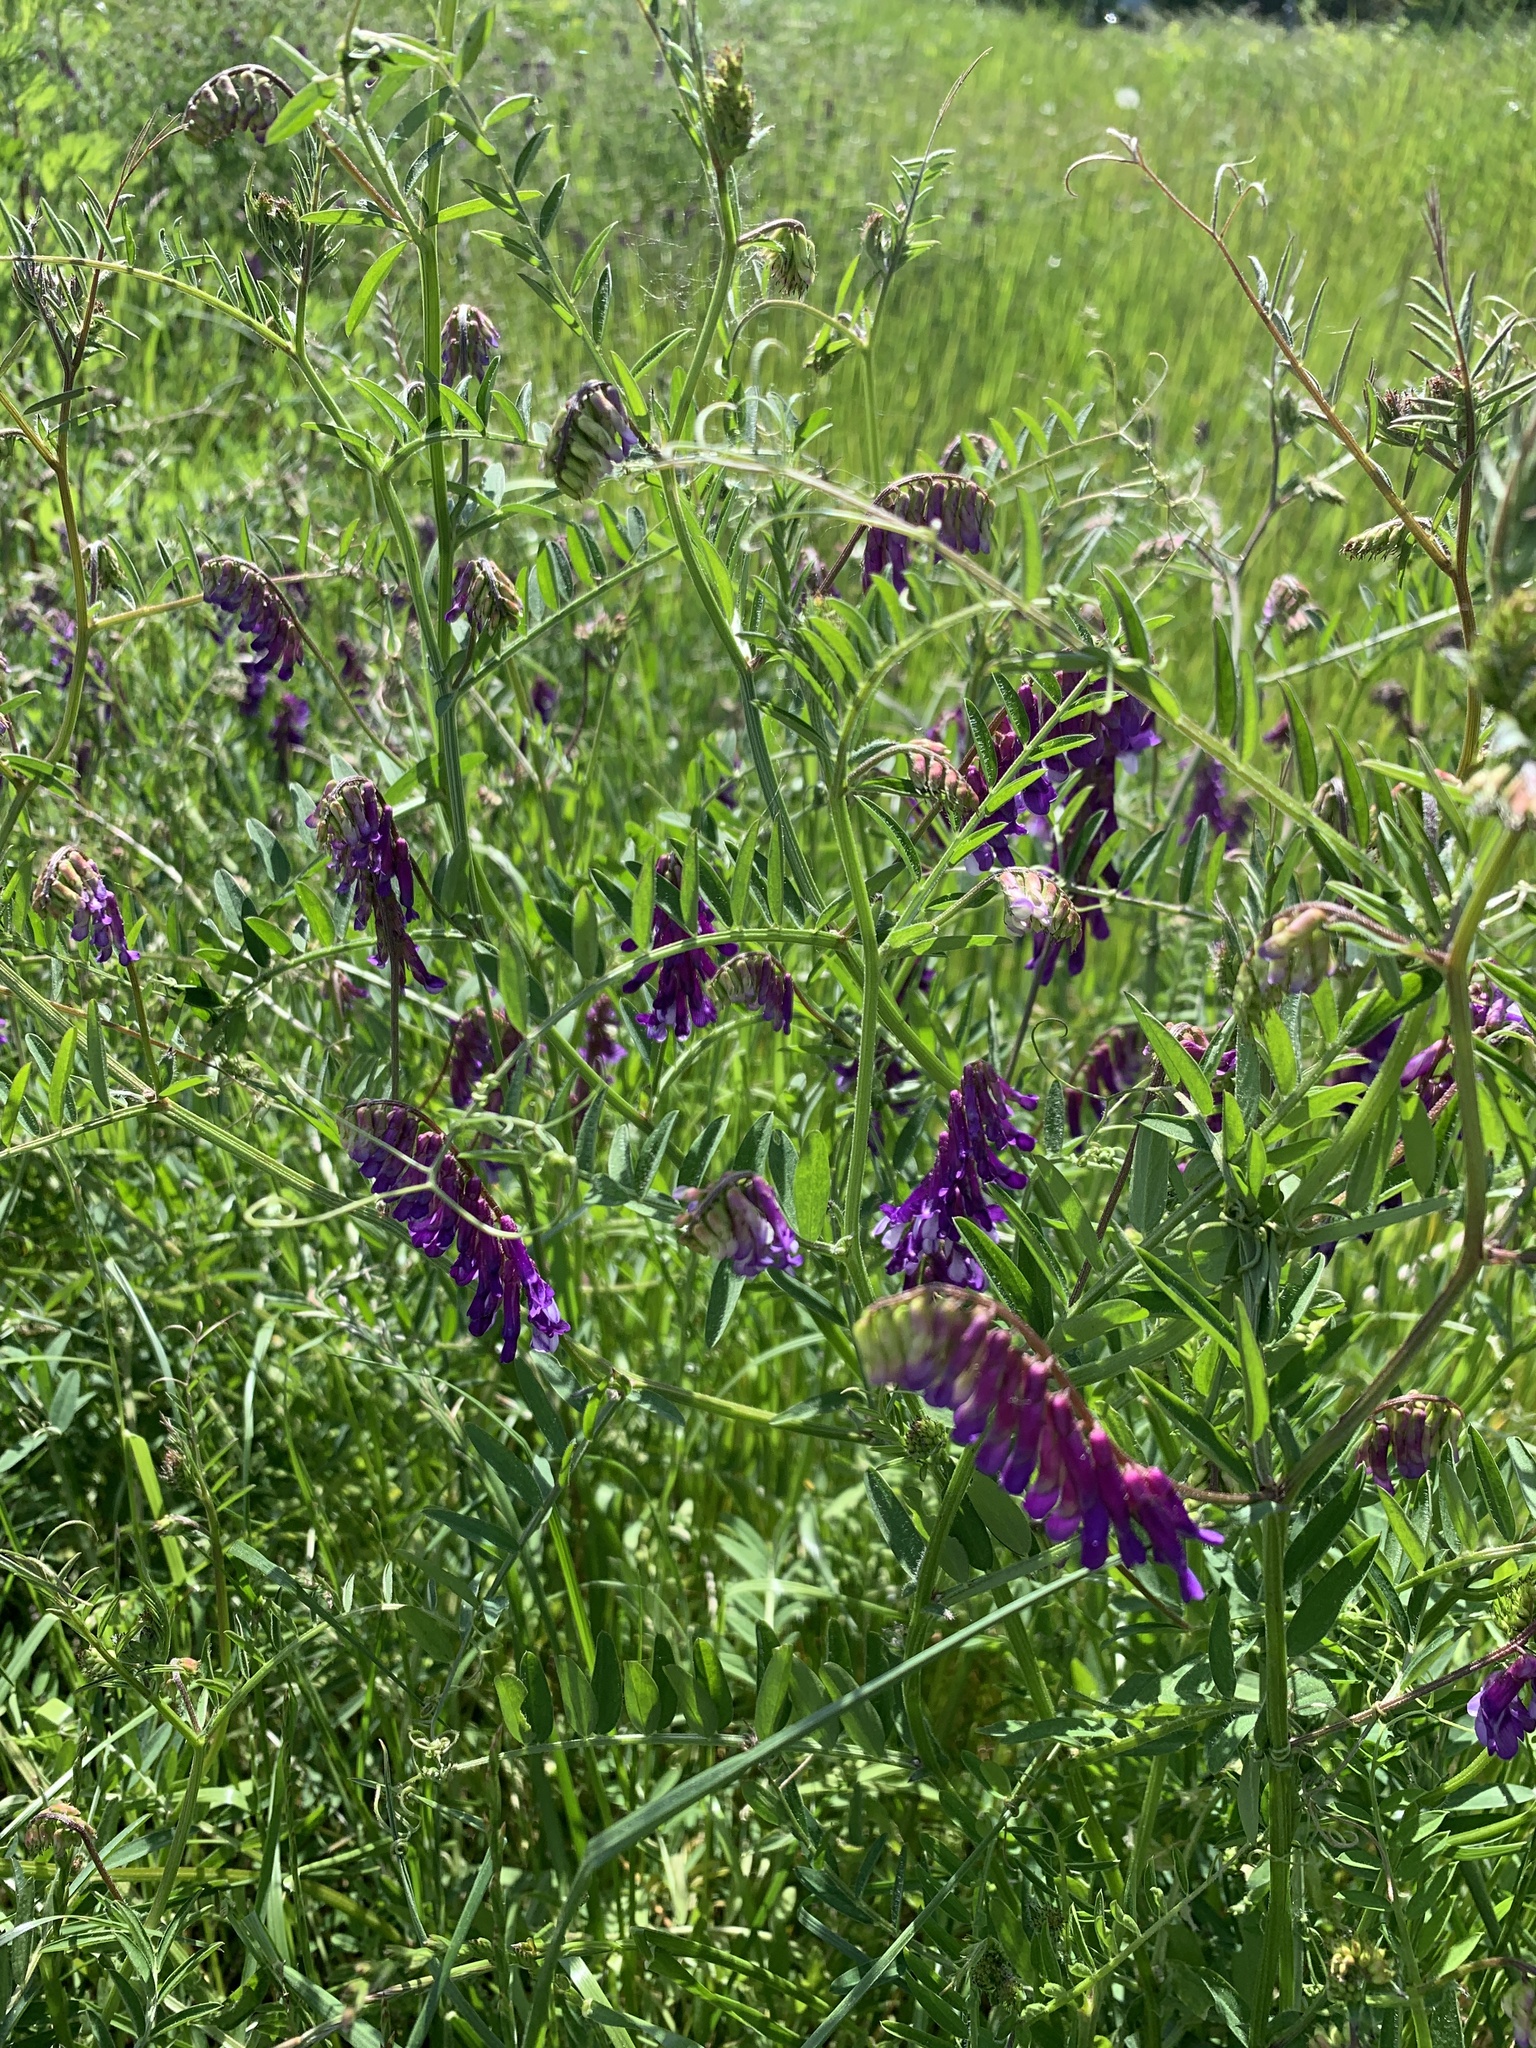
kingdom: Plantae
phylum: Tracheophyta
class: Magnoliopsida
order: Fabales
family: Fabaceae
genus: Vicia
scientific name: Vicia villosa
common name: Fodder vetch
